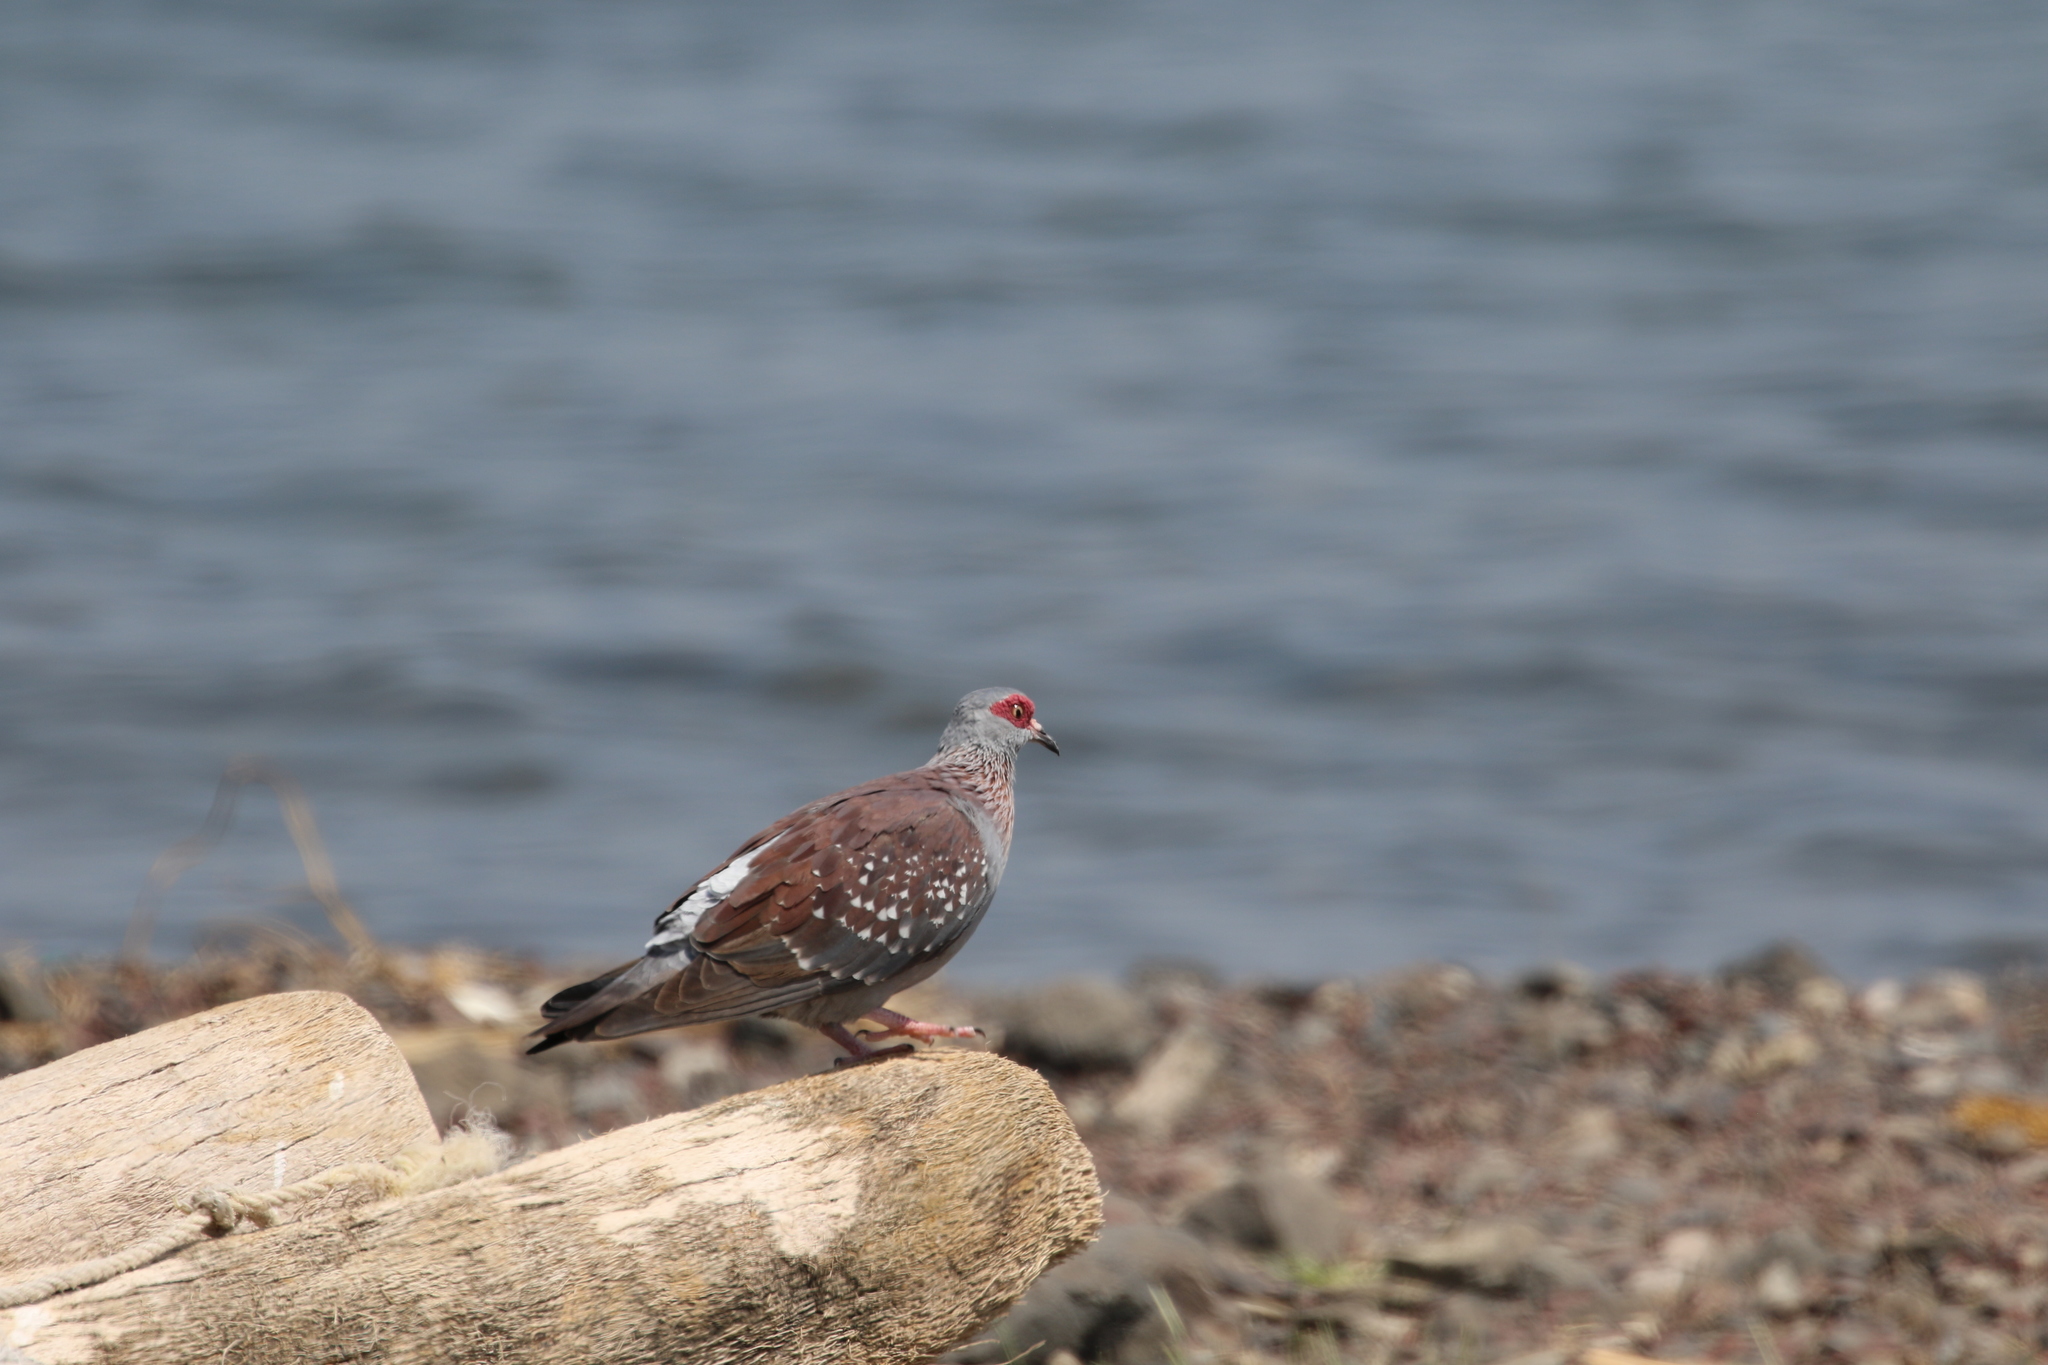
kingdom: Animalia
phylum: Chordata
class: Aves
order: Columbiformes
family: Columbidae
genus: Columba
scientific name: Columba guinea
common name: Speckled pigeon
